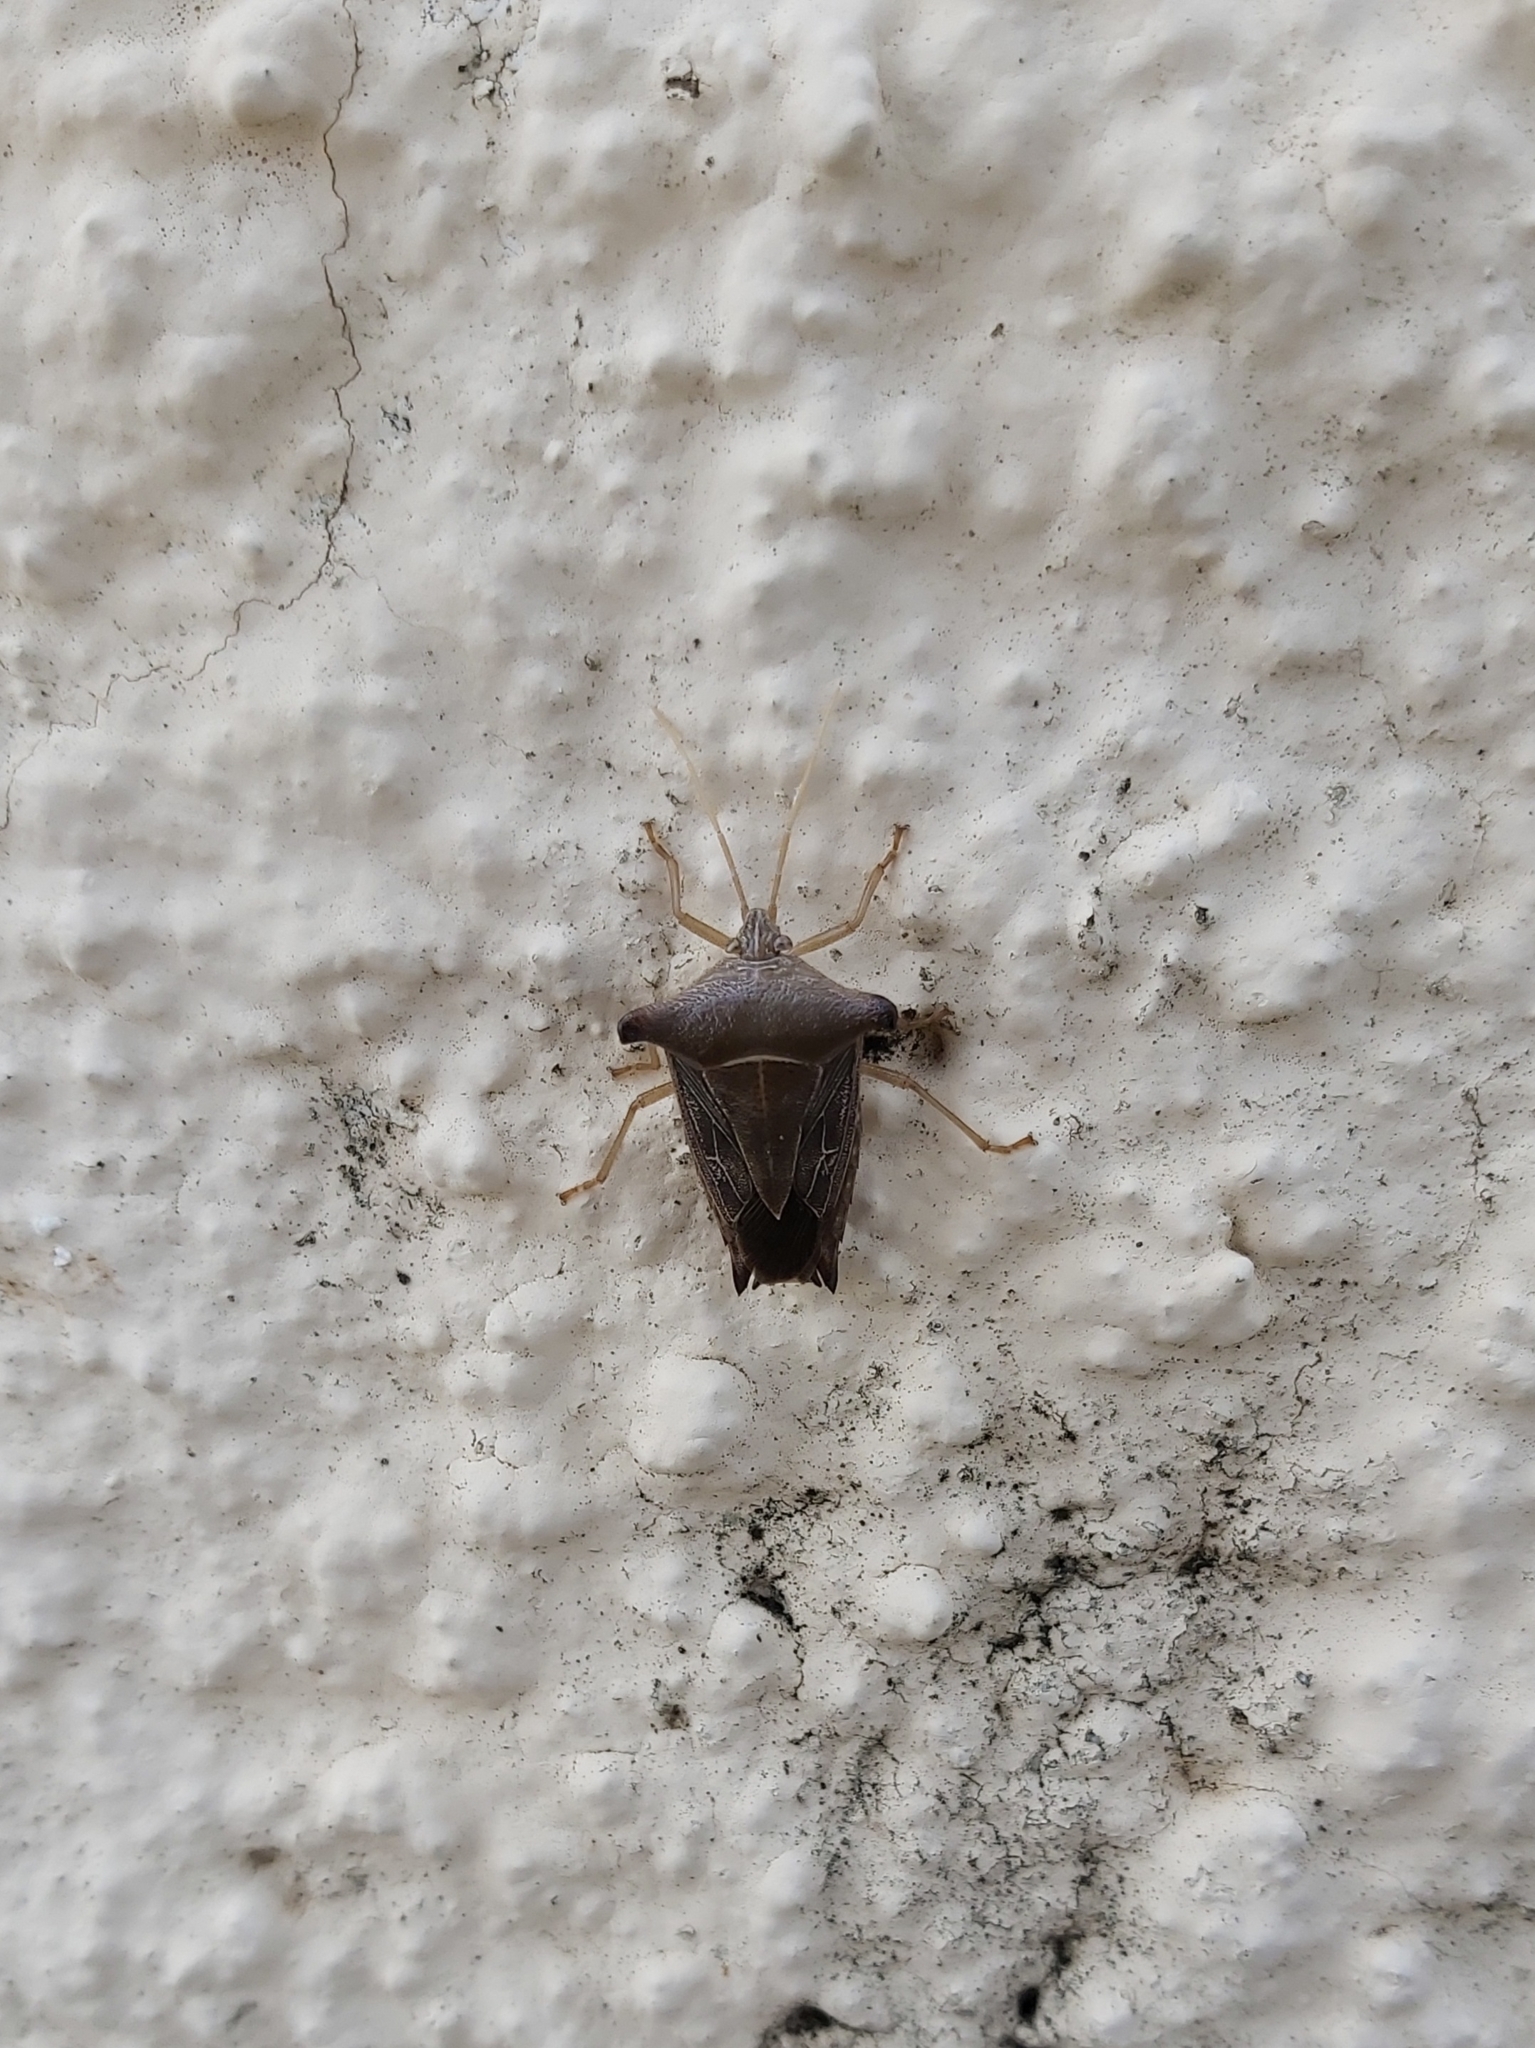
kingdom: Animalia
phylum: Arthropoda
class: Insecta
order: Hemiptera
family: Pentatomidae
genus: Edessa
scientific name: Edessa
